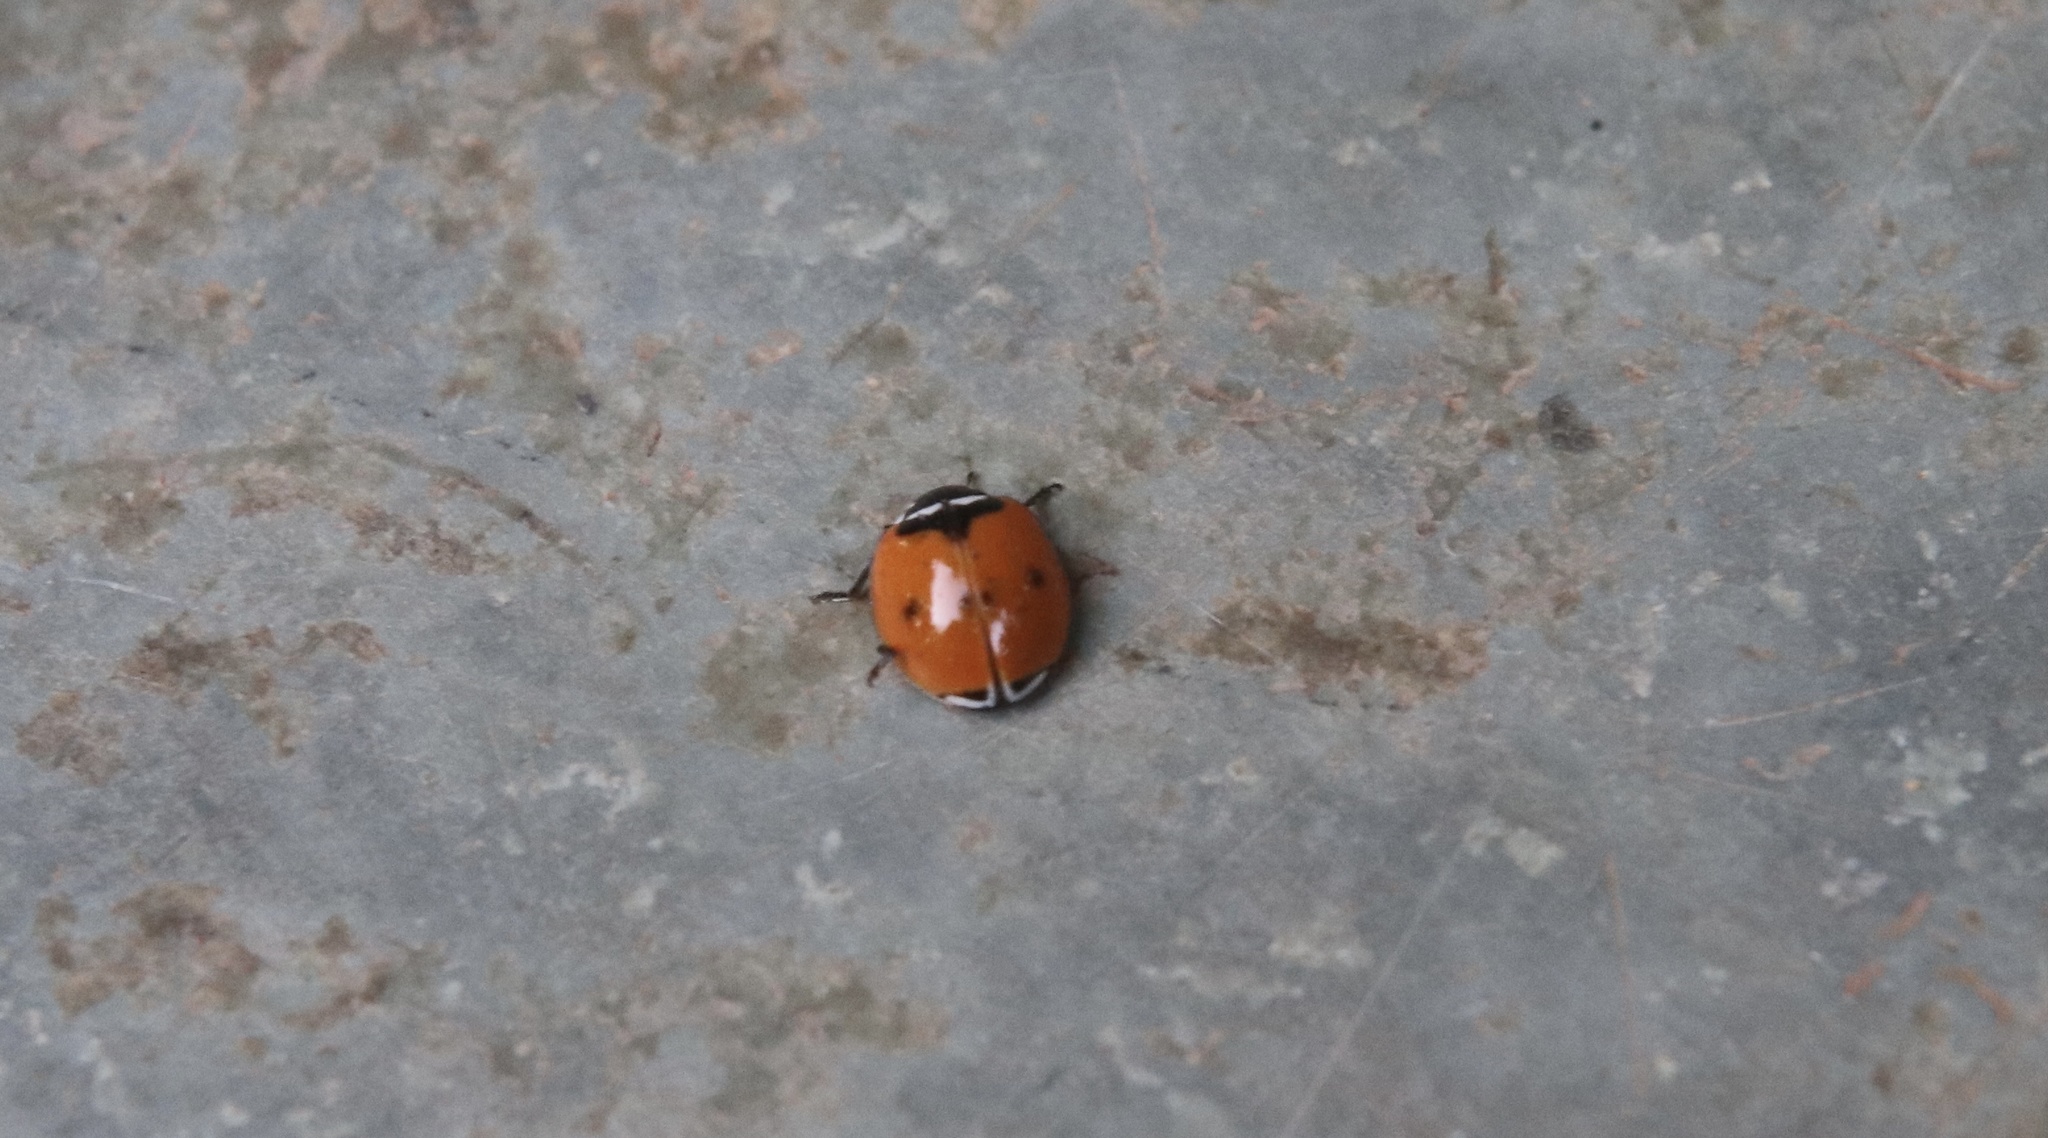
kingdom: Animalia
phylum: Arthropoda
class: Insecta
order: Coleoptera
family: Coccinellidae
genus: Adalia
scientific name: Adalia deficiens
